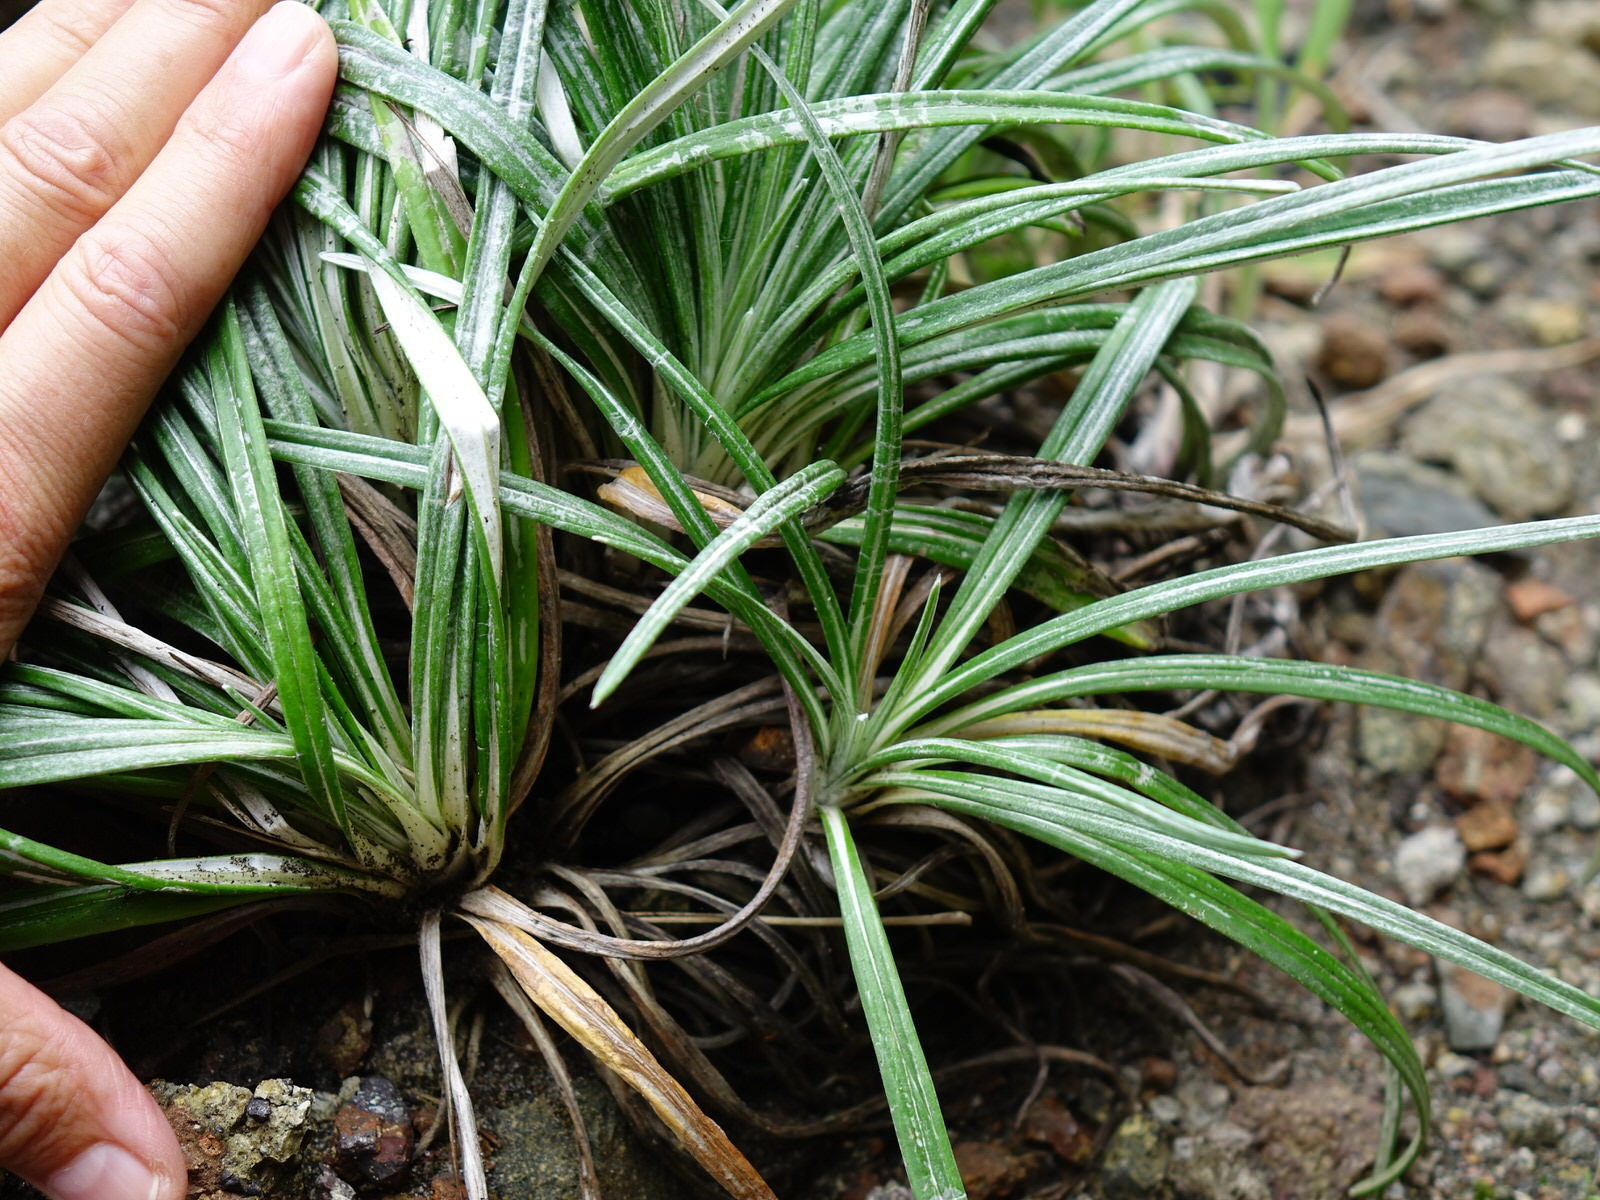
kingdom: Plantae
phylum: Tracheophyta
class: Magnoliopsida
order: Asterales
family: Asteraceae
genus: Celmisia
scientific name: Celmisia major
